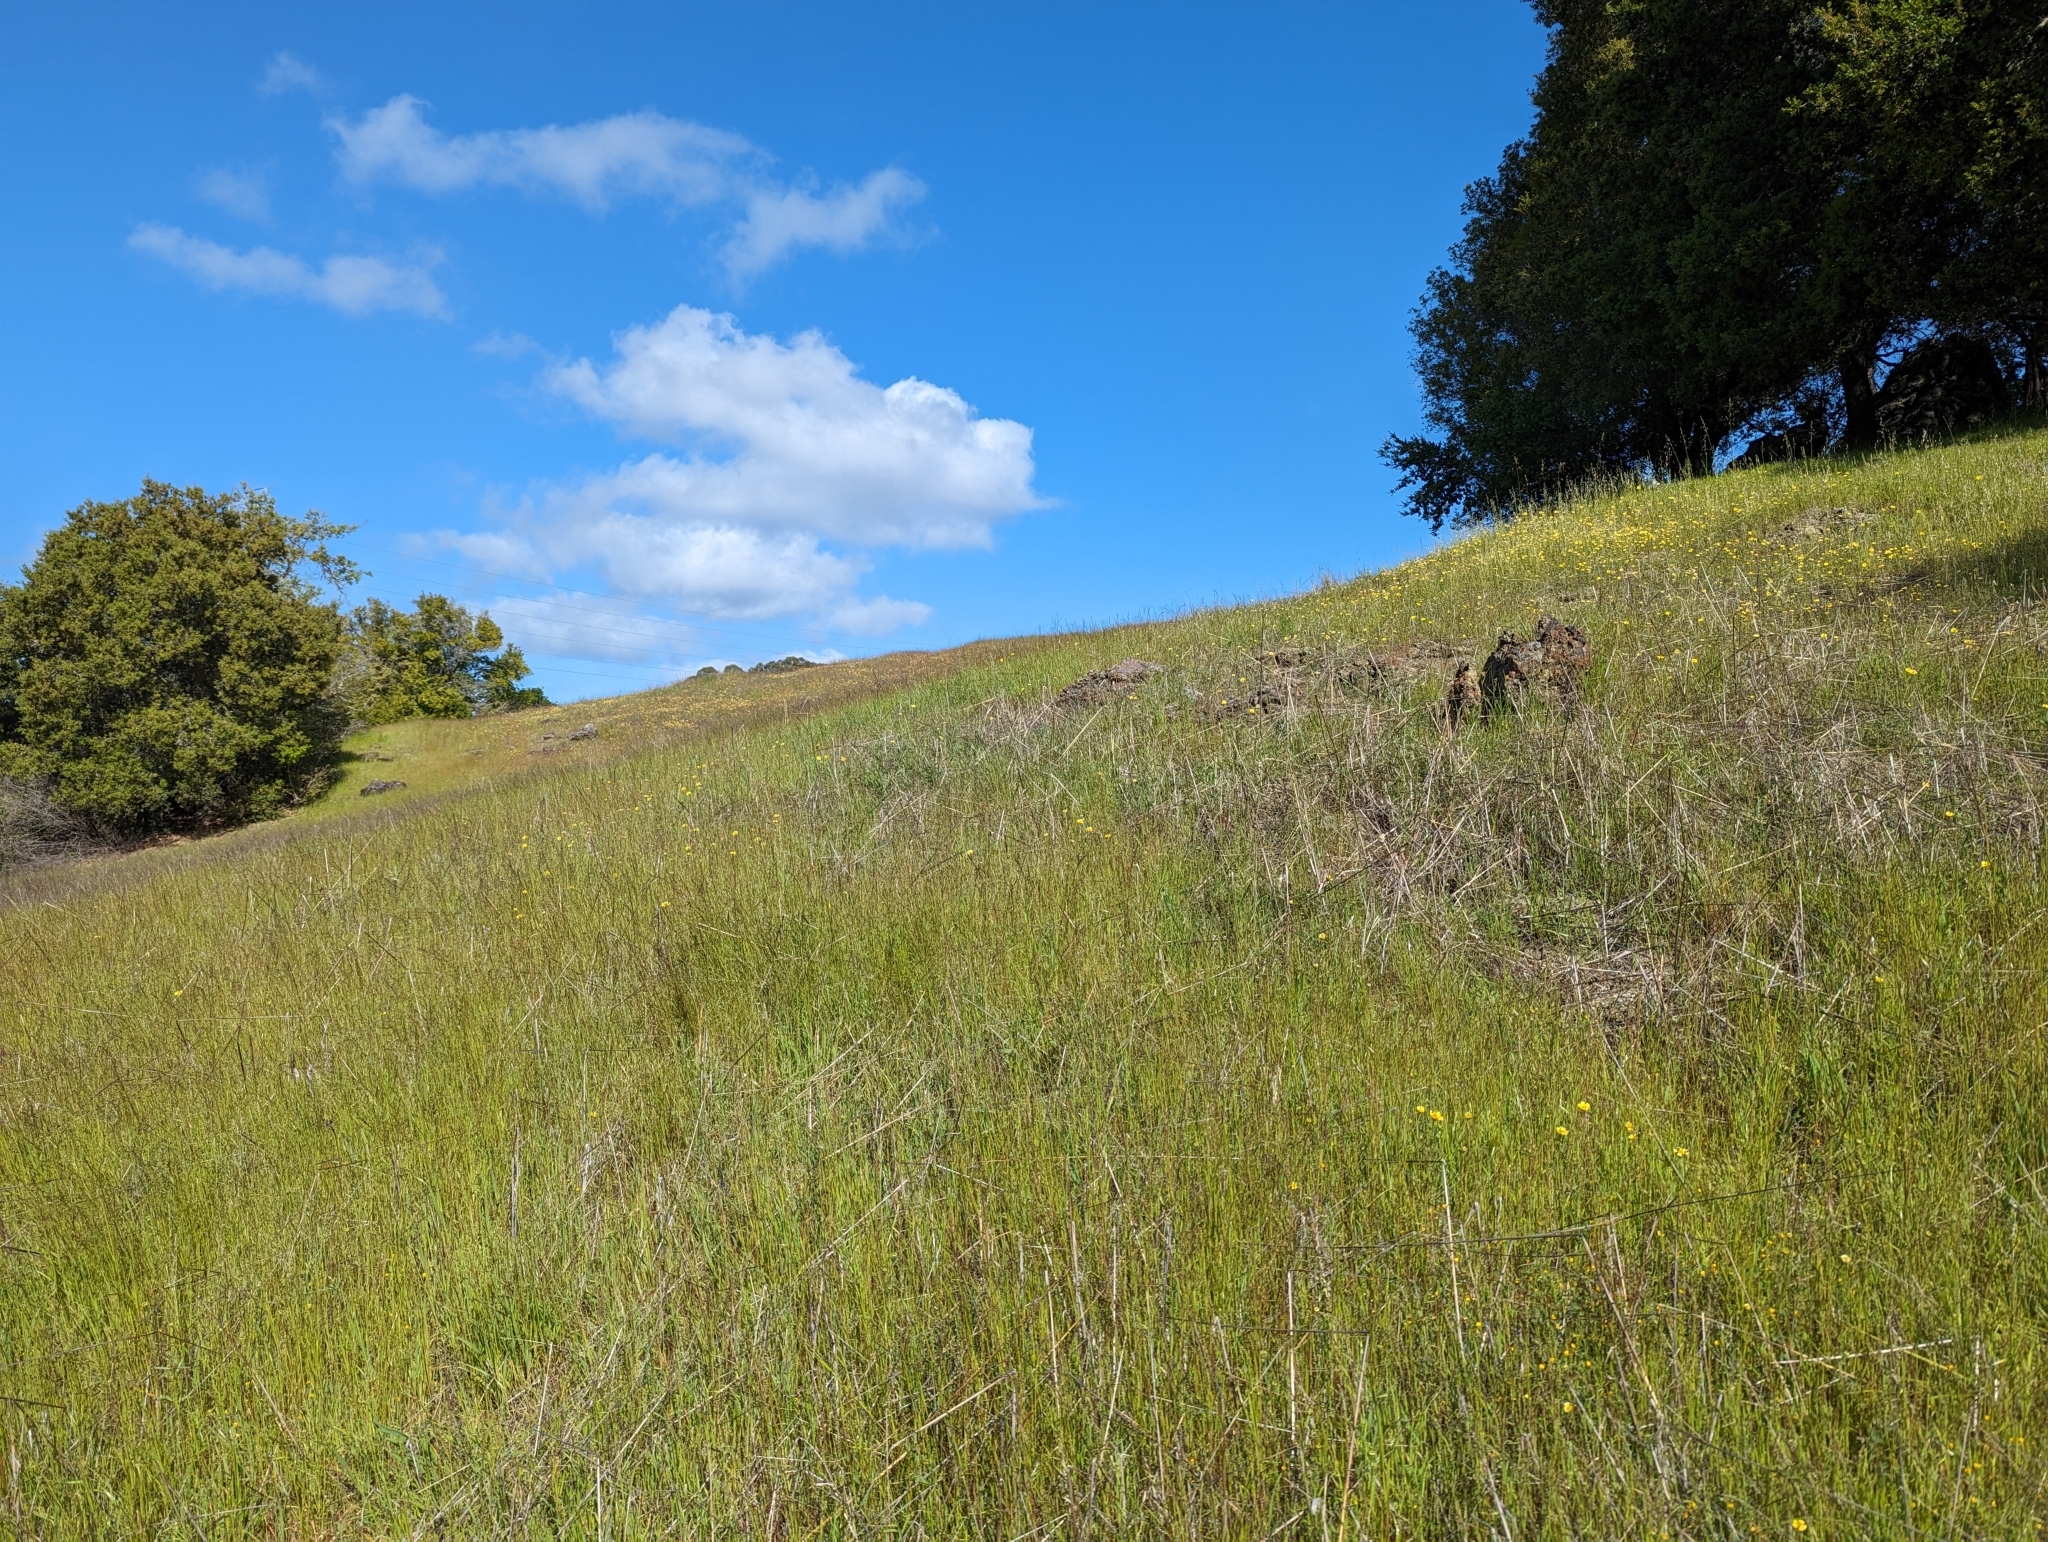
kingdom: Plantae
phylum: Tracheophyta
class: Magnoliopsida
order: Asterales
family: Asteraceae
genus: Layia
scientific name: Layia platyglossa
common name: Tidy-tips
